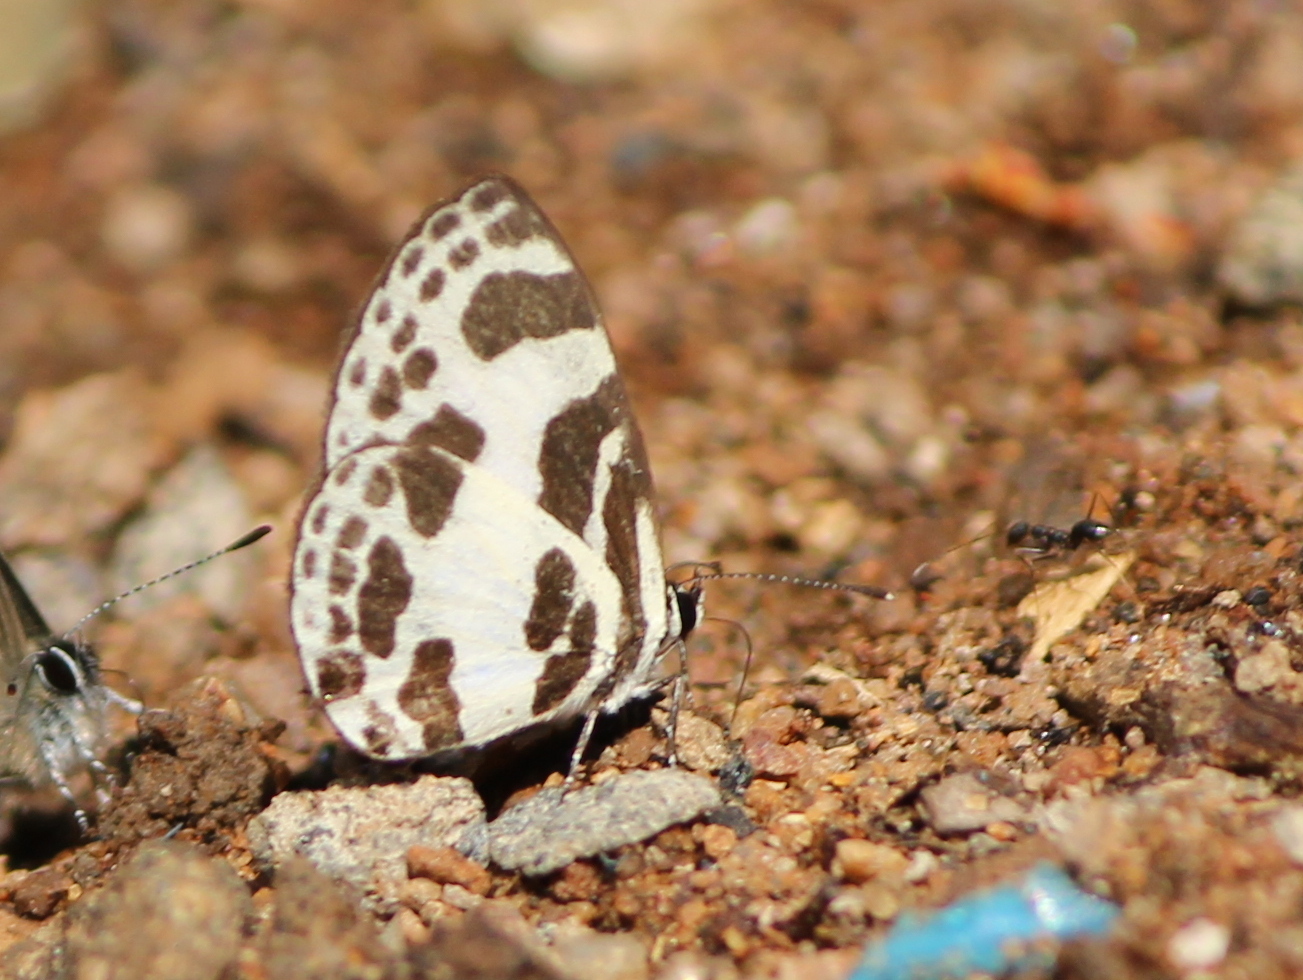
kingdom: Animalia
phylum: Arthropoda
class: Insecta
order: Lepidoptera
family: Lycaenidae
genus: Discolampa
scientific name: Discolampa ethion
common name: Banded blue pierrot
